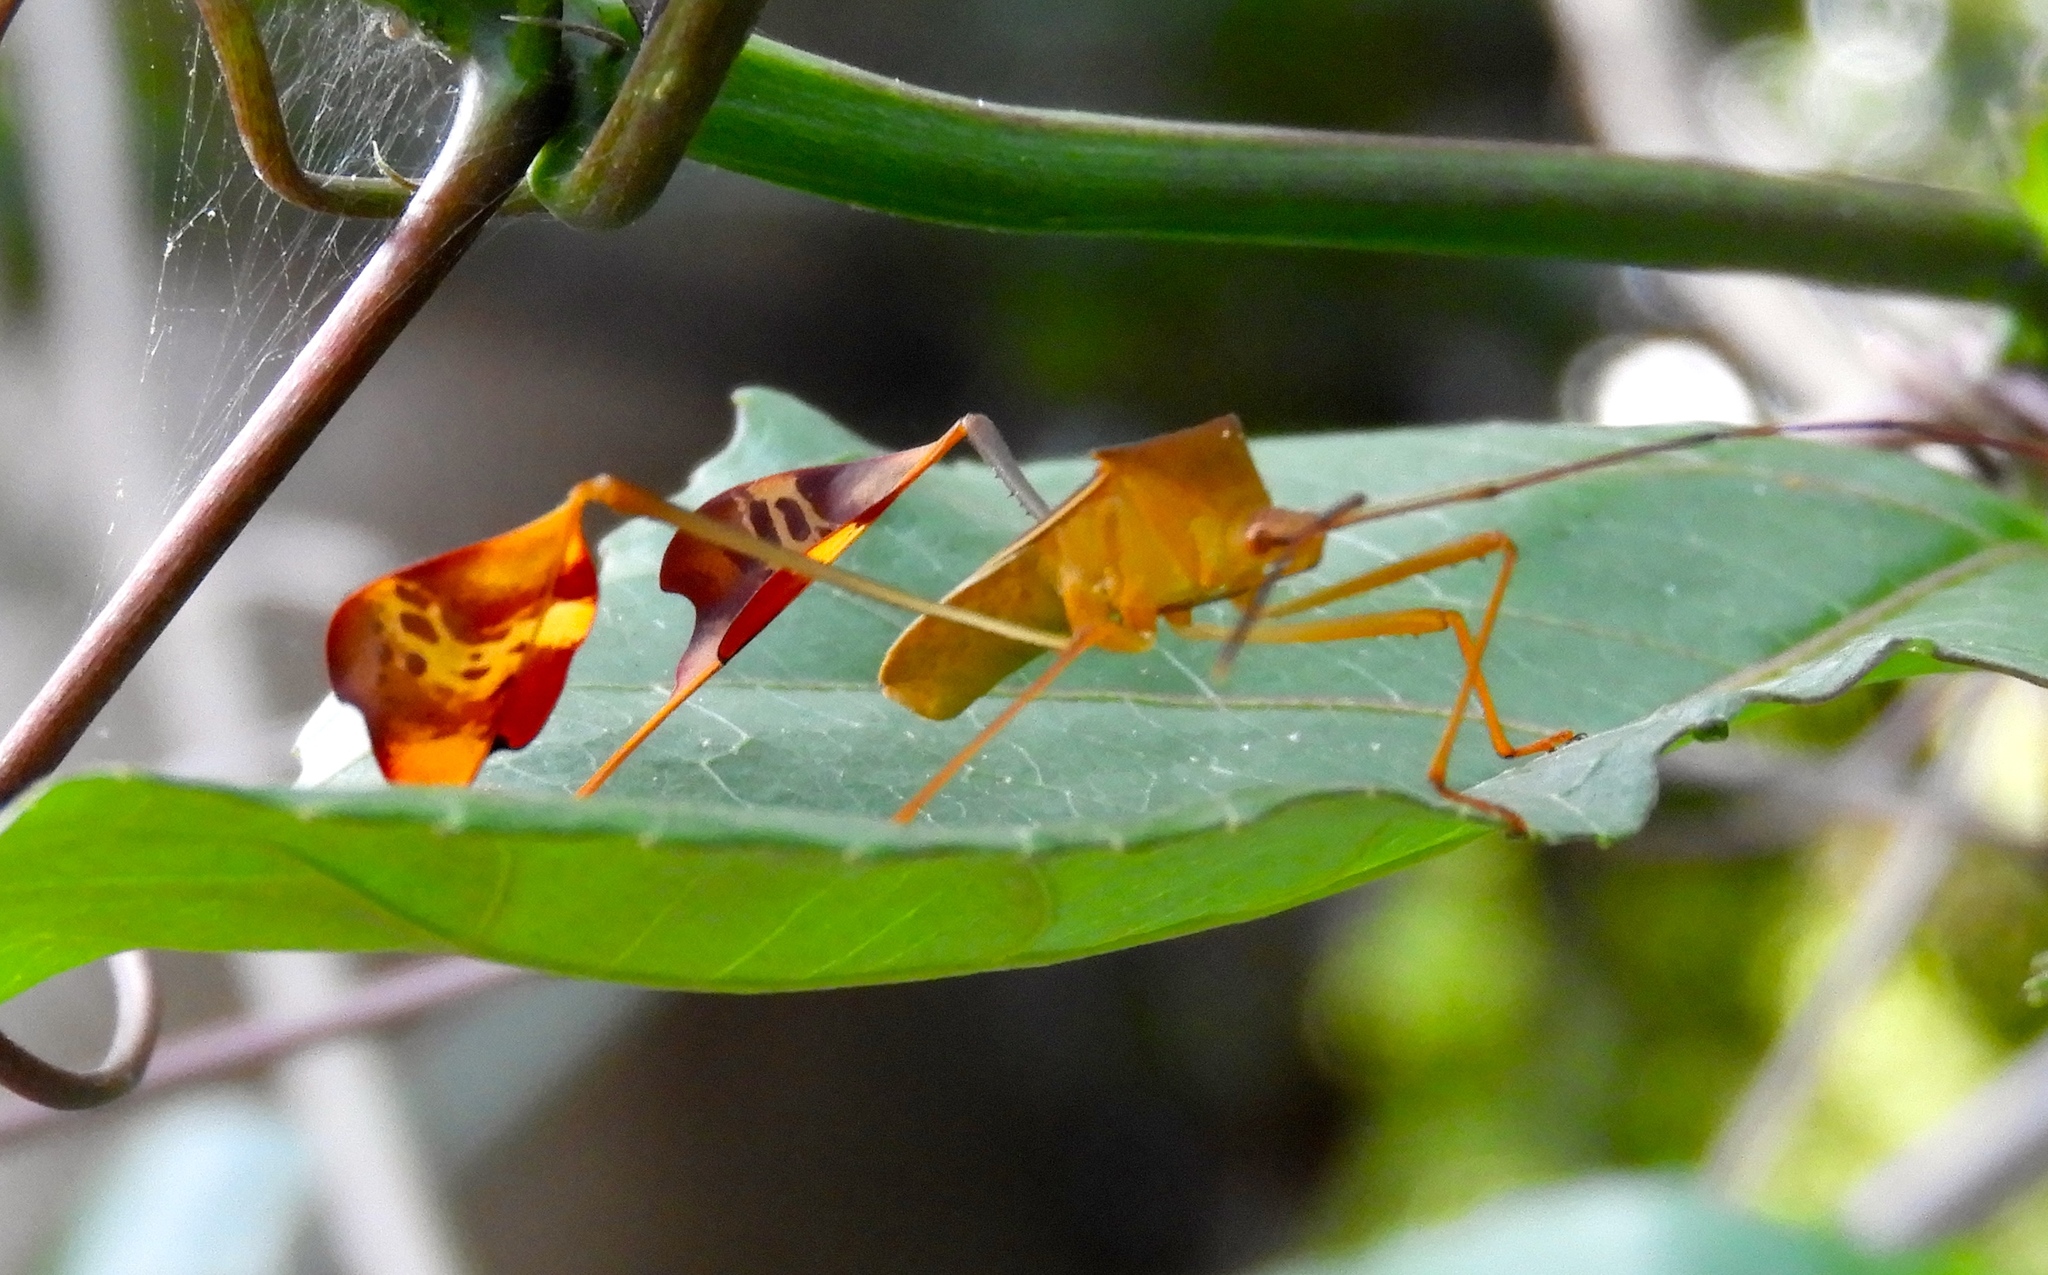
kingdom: Animalia
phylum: Arthropoda
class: Insecta
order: Hemiptera
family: Coreidae
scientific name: Coreidae
